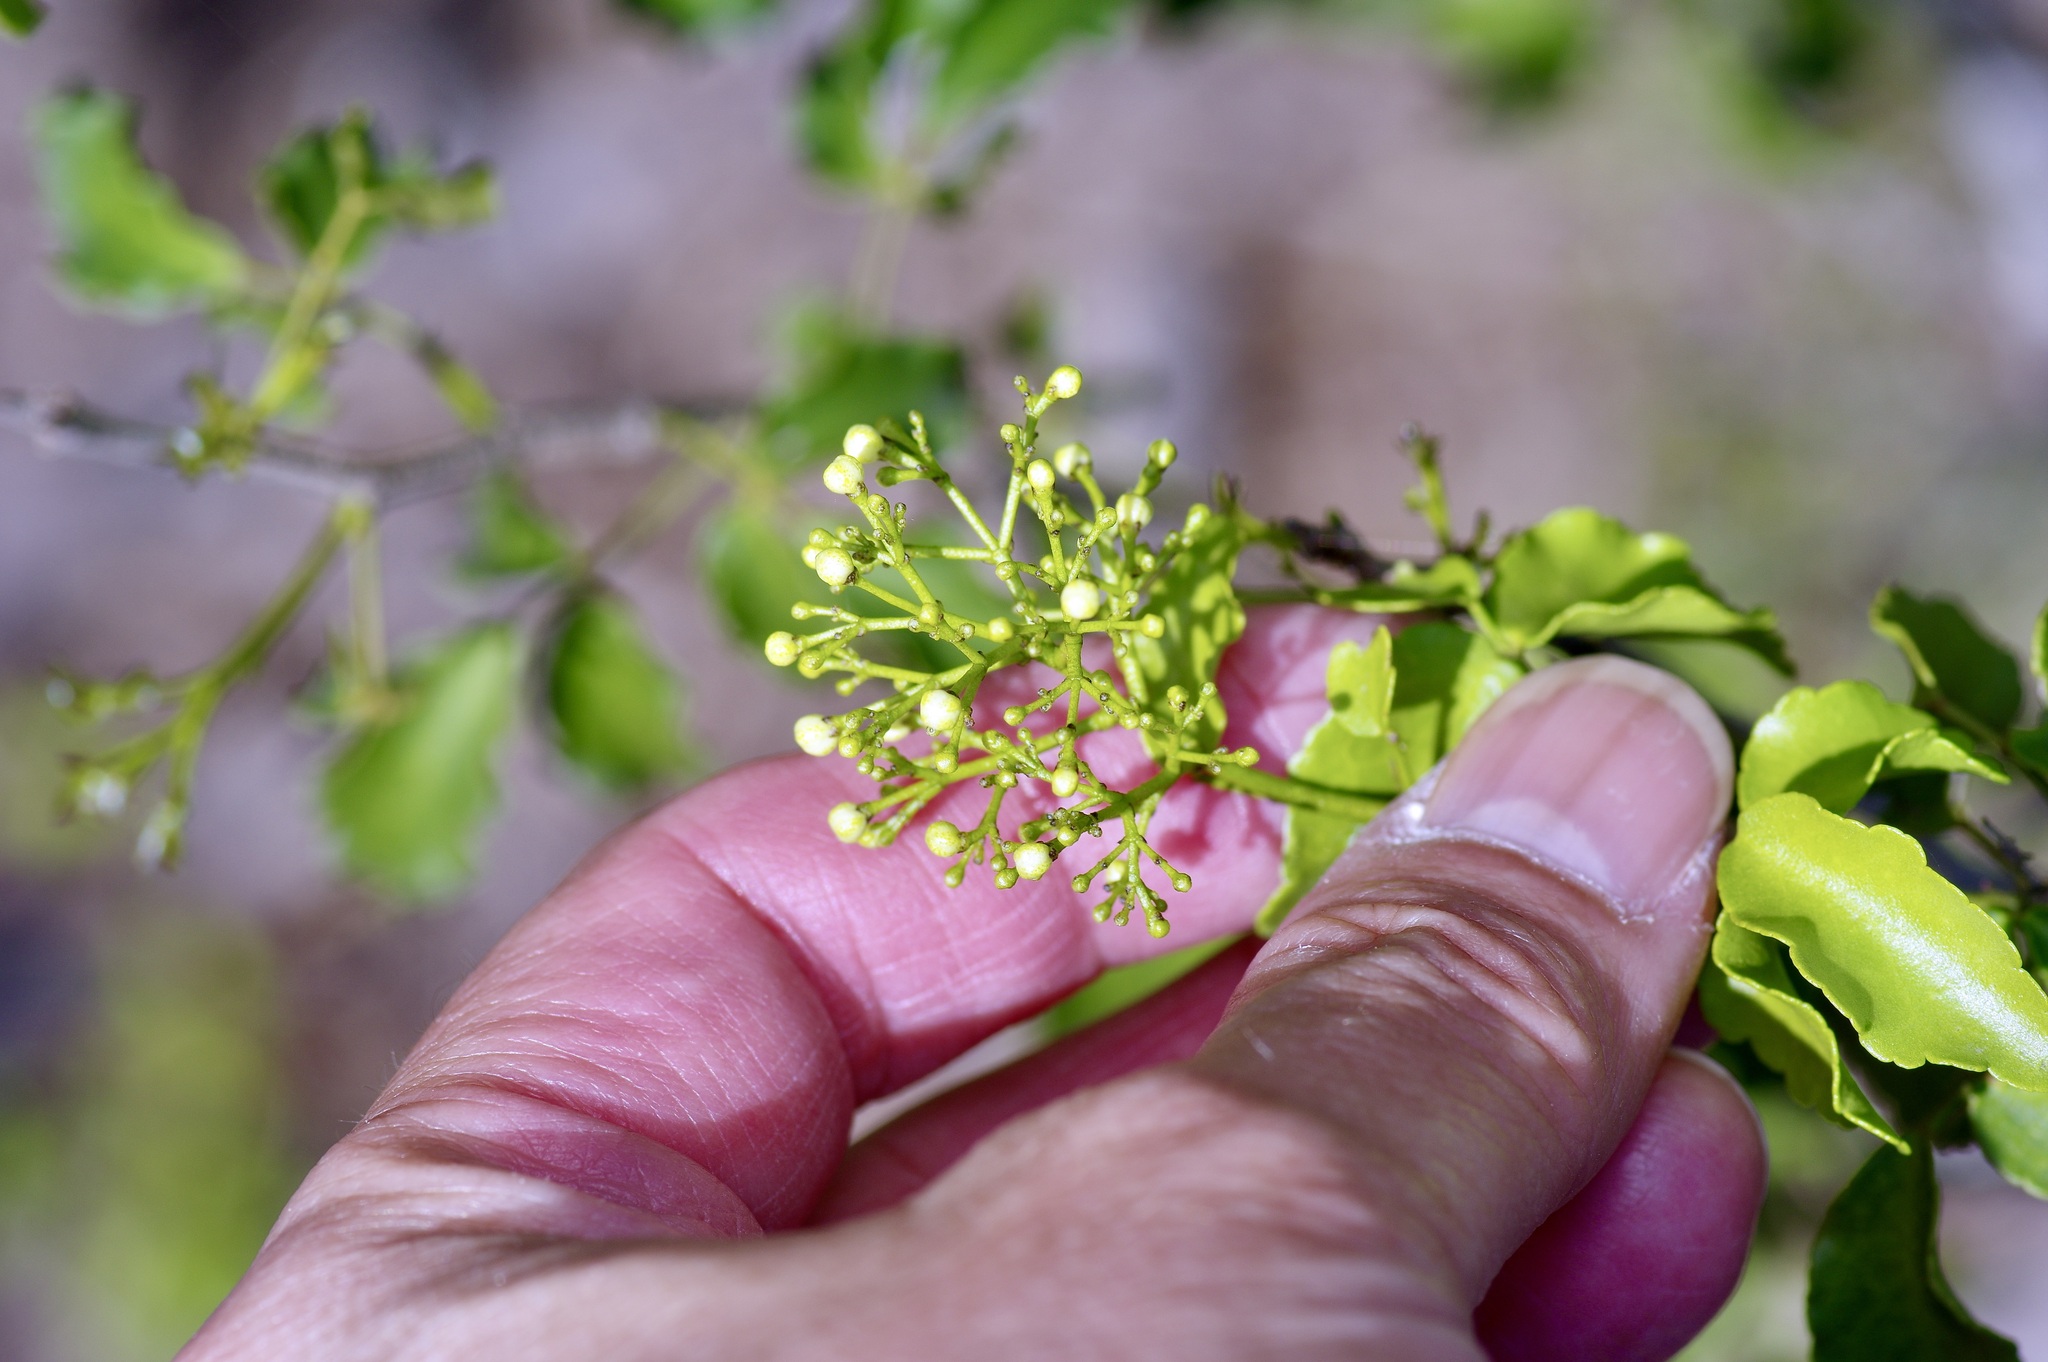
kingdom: Plantae
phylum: Tracheophyta
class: Magnoliopsida
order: Sapindales
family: Rutaceae
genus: Amyris
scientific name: Amyris texana
